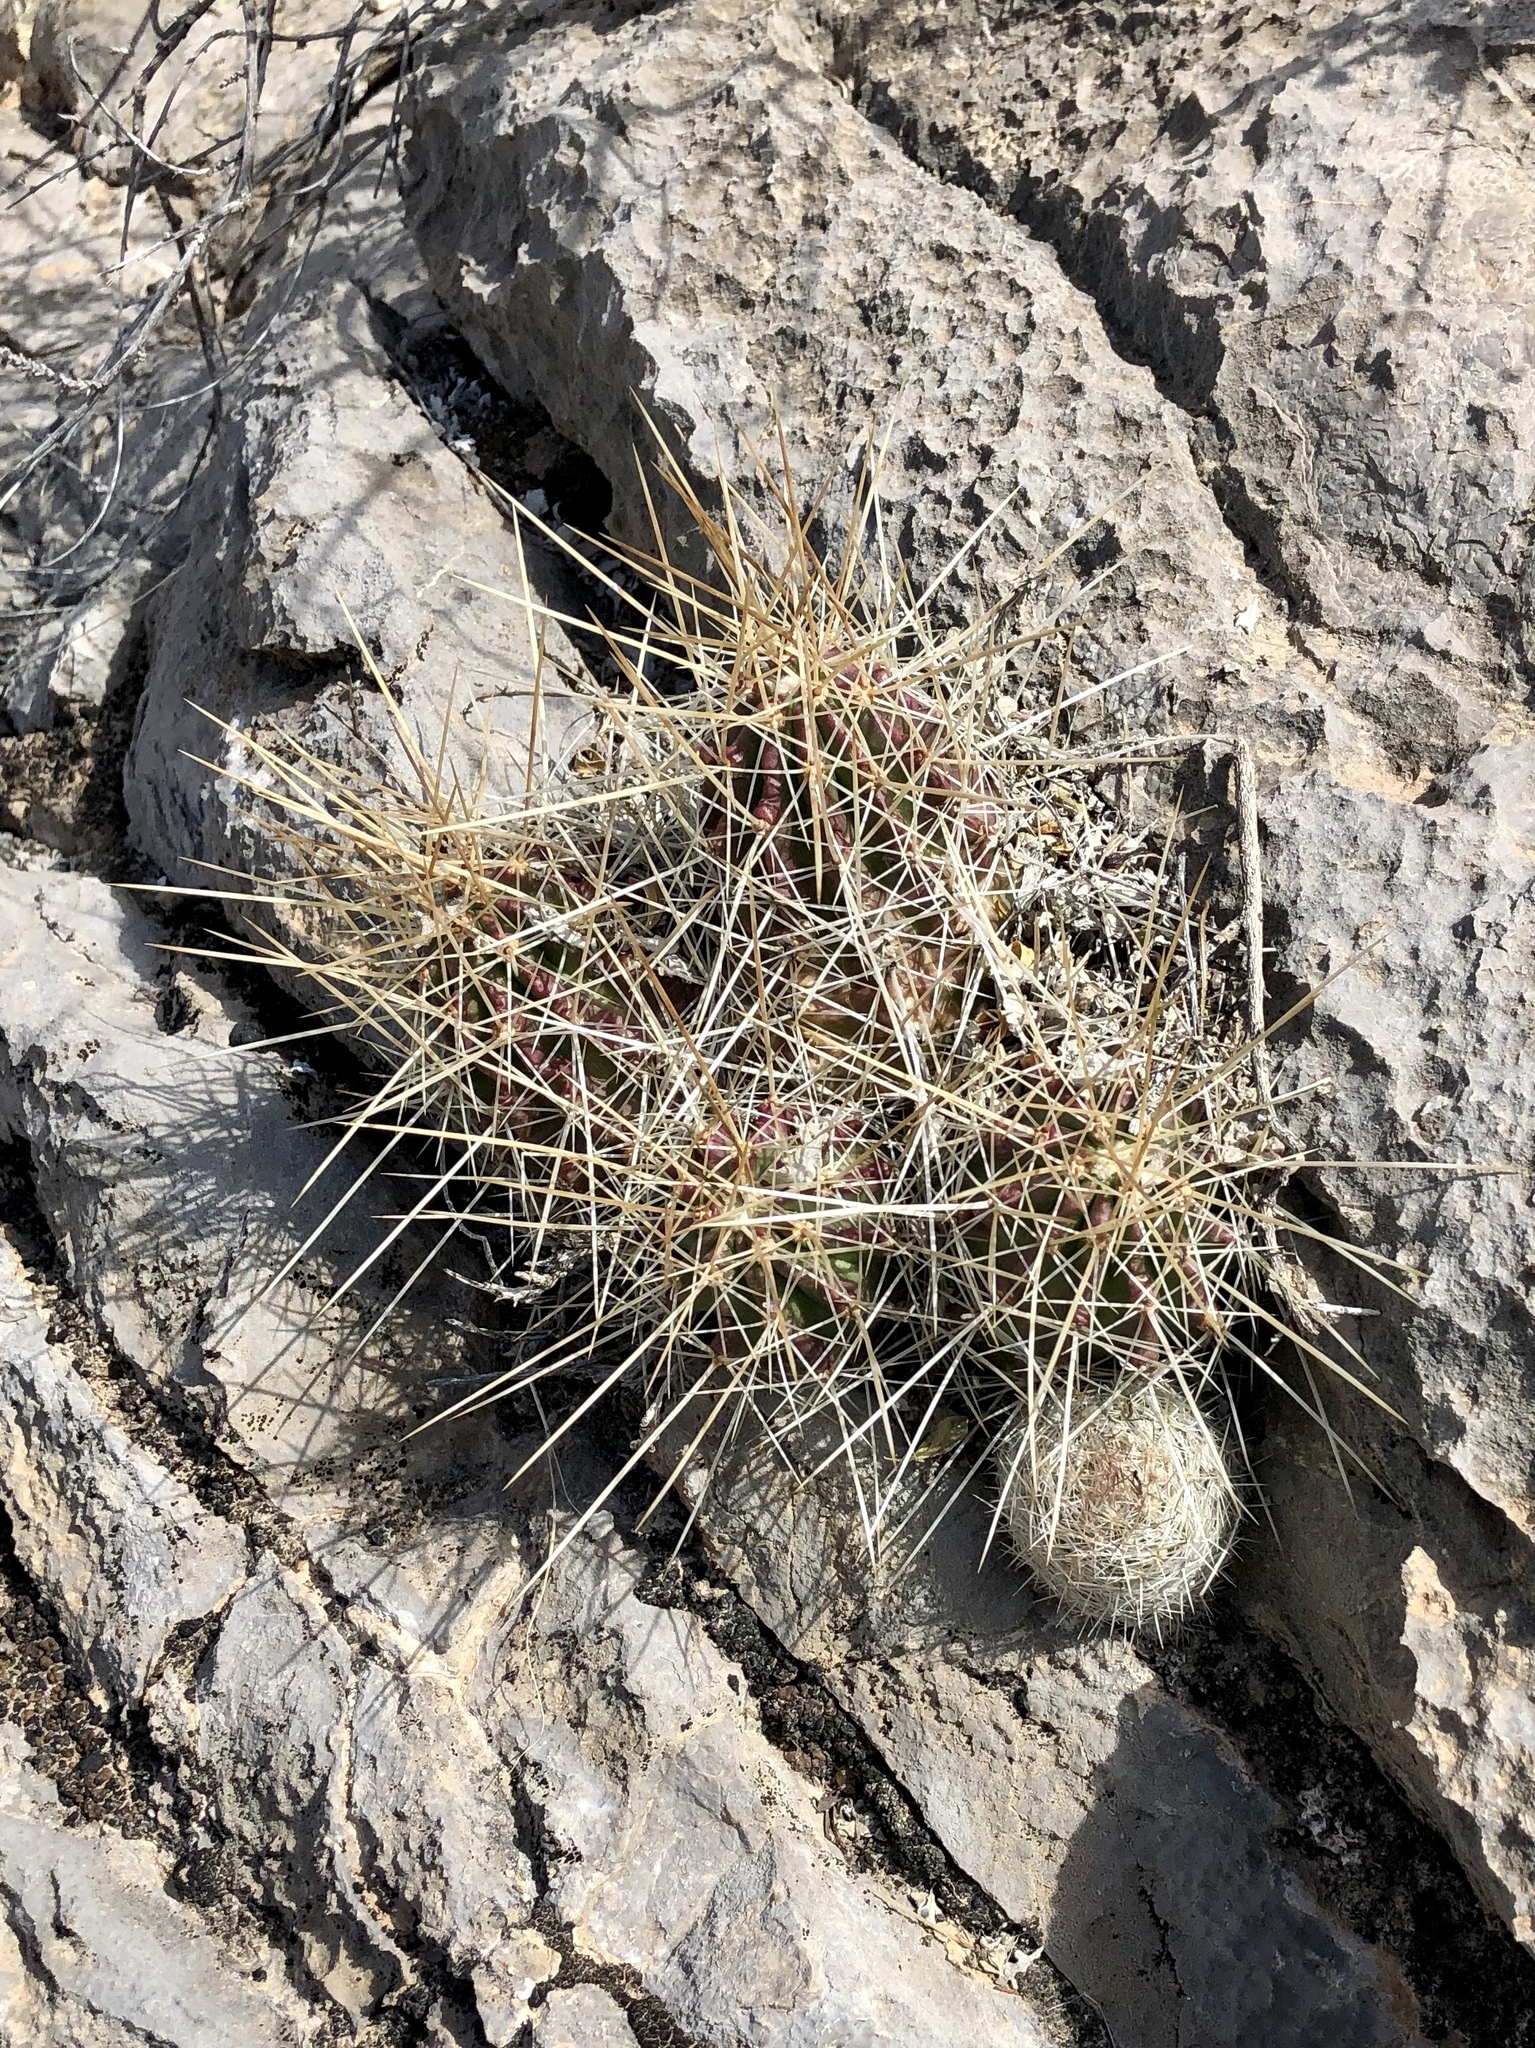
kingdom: Plantae
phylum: Tracheophyta
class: Magnoliopsida
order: Caryophyllales
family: Cactaceae
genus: Echinocereus
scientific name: Echinocereus stramineus
